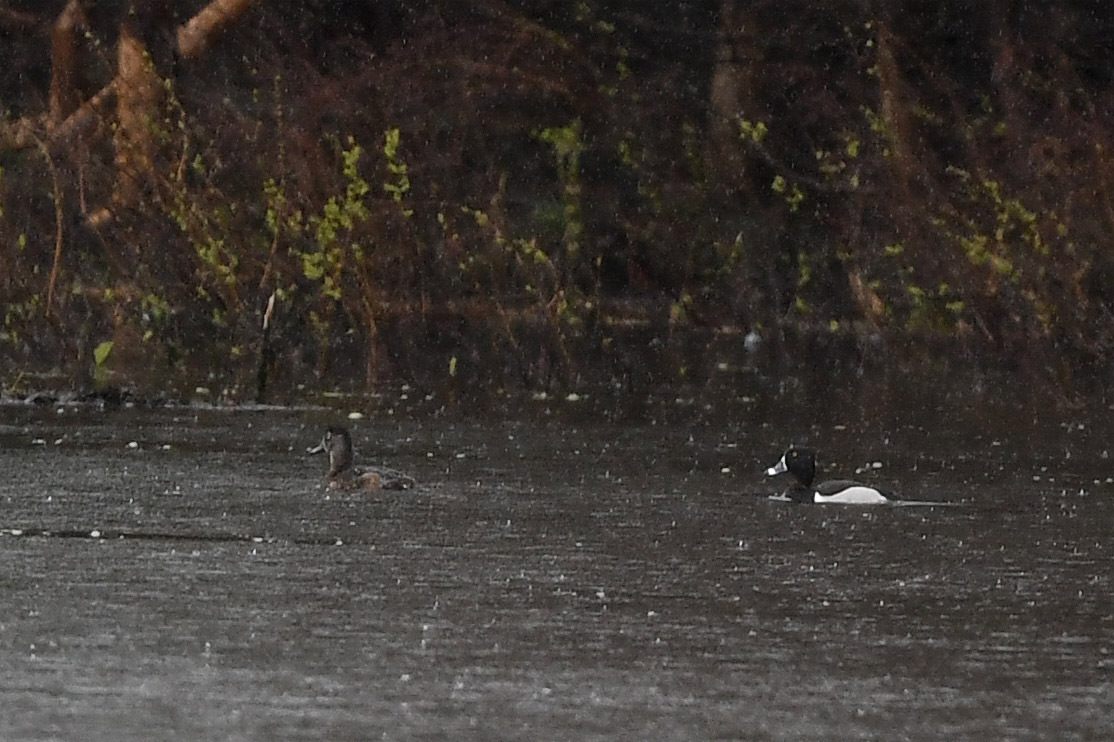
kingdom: Animalia
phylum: Chordata
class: Aves
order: Anseriformes
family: Anatidae
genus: Aythya
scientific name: Aythya collaris
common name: Ring-necked duck
